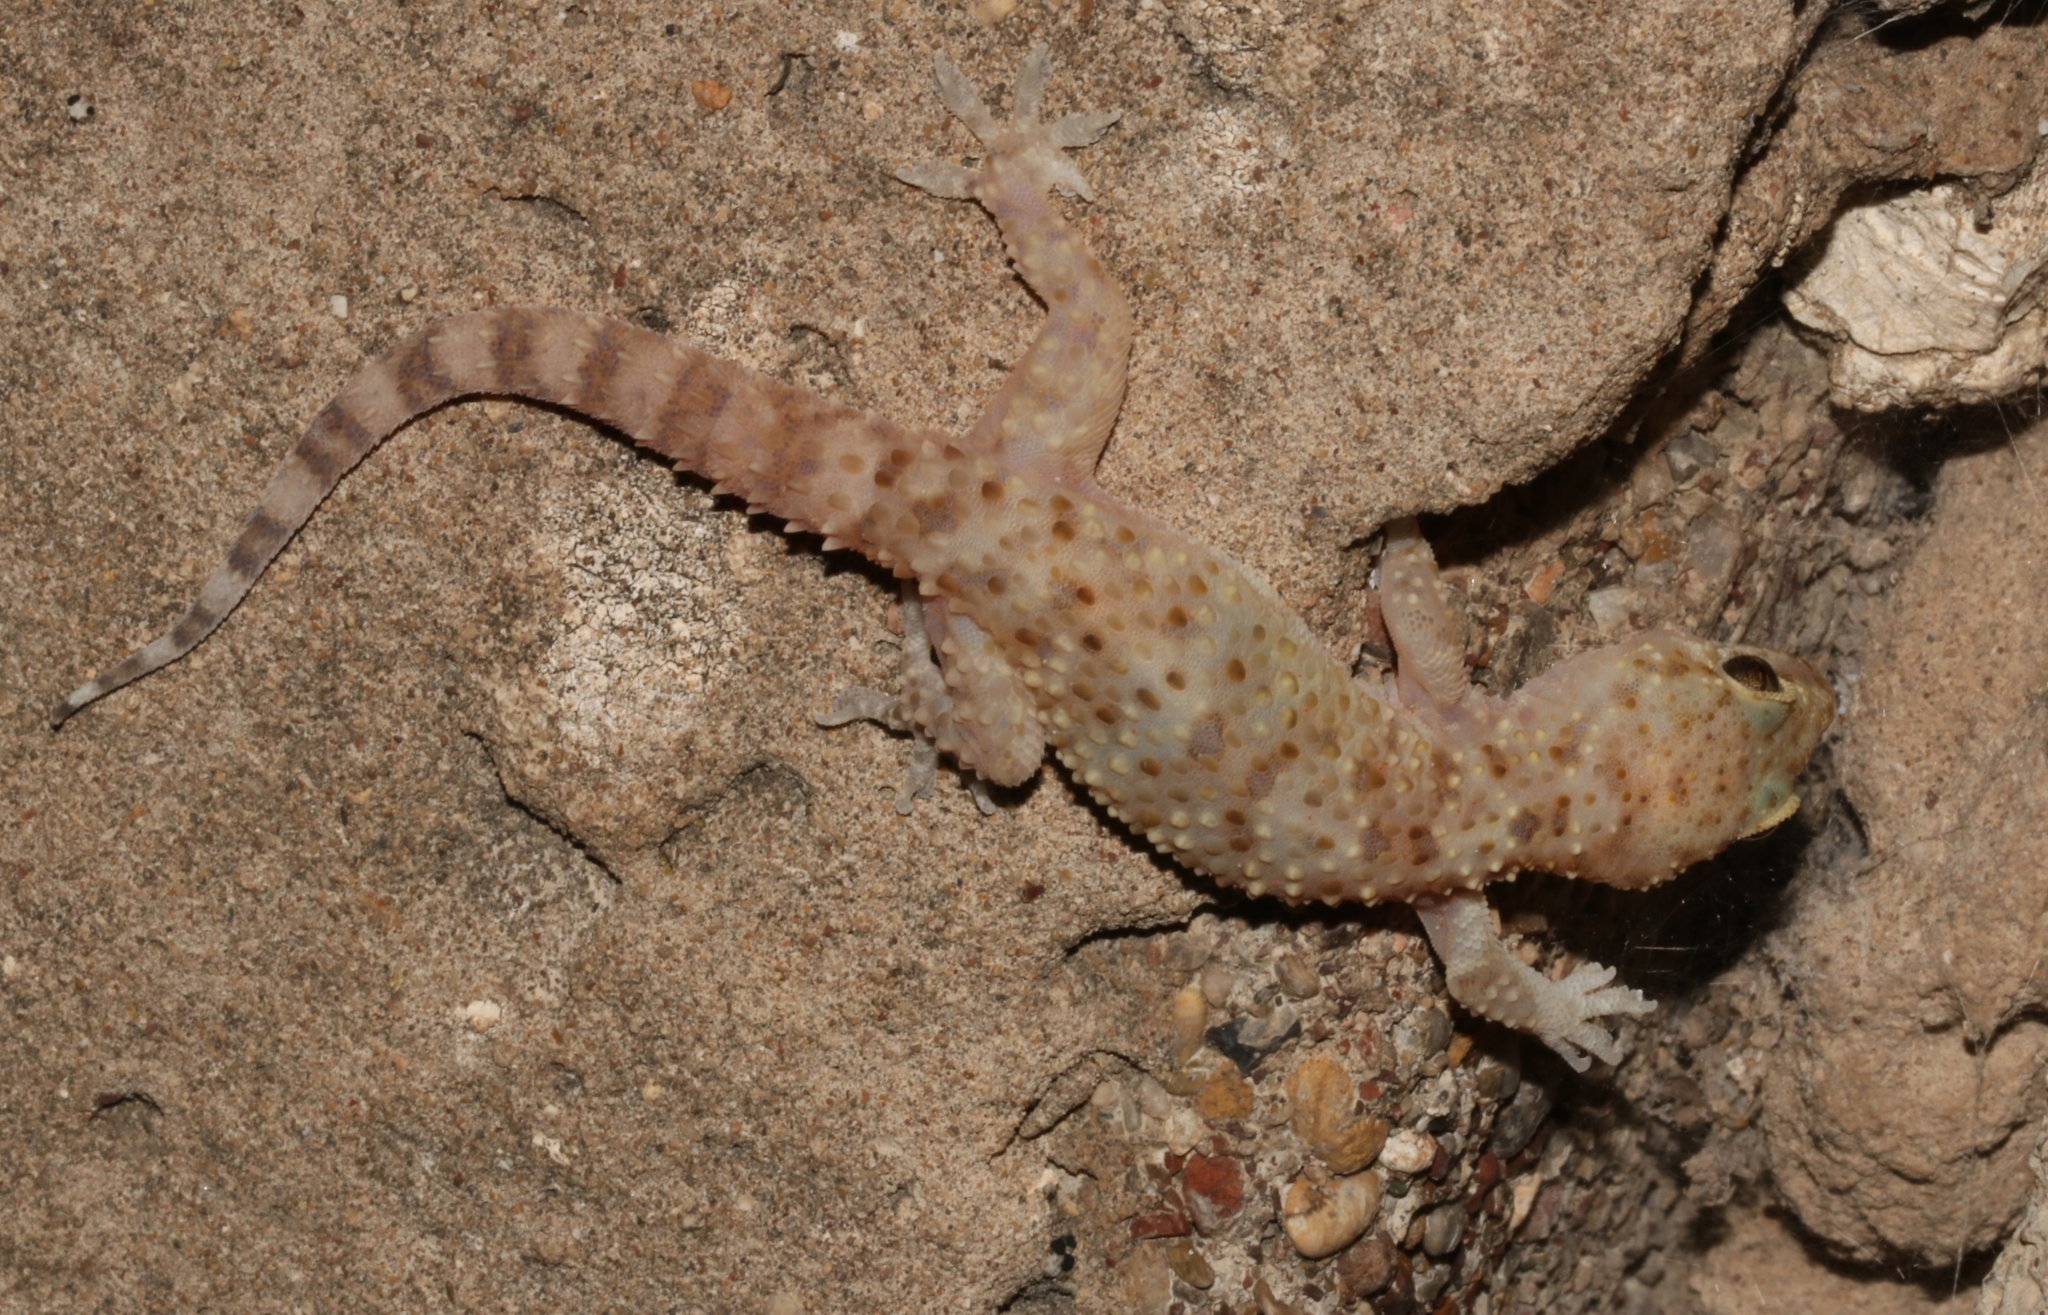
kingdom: Animalia
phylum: Chordata
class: Squamata
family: Gekkonidae
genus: Hemidactylus
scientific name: Hemidactylus turcicus
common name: Turkish gecko
